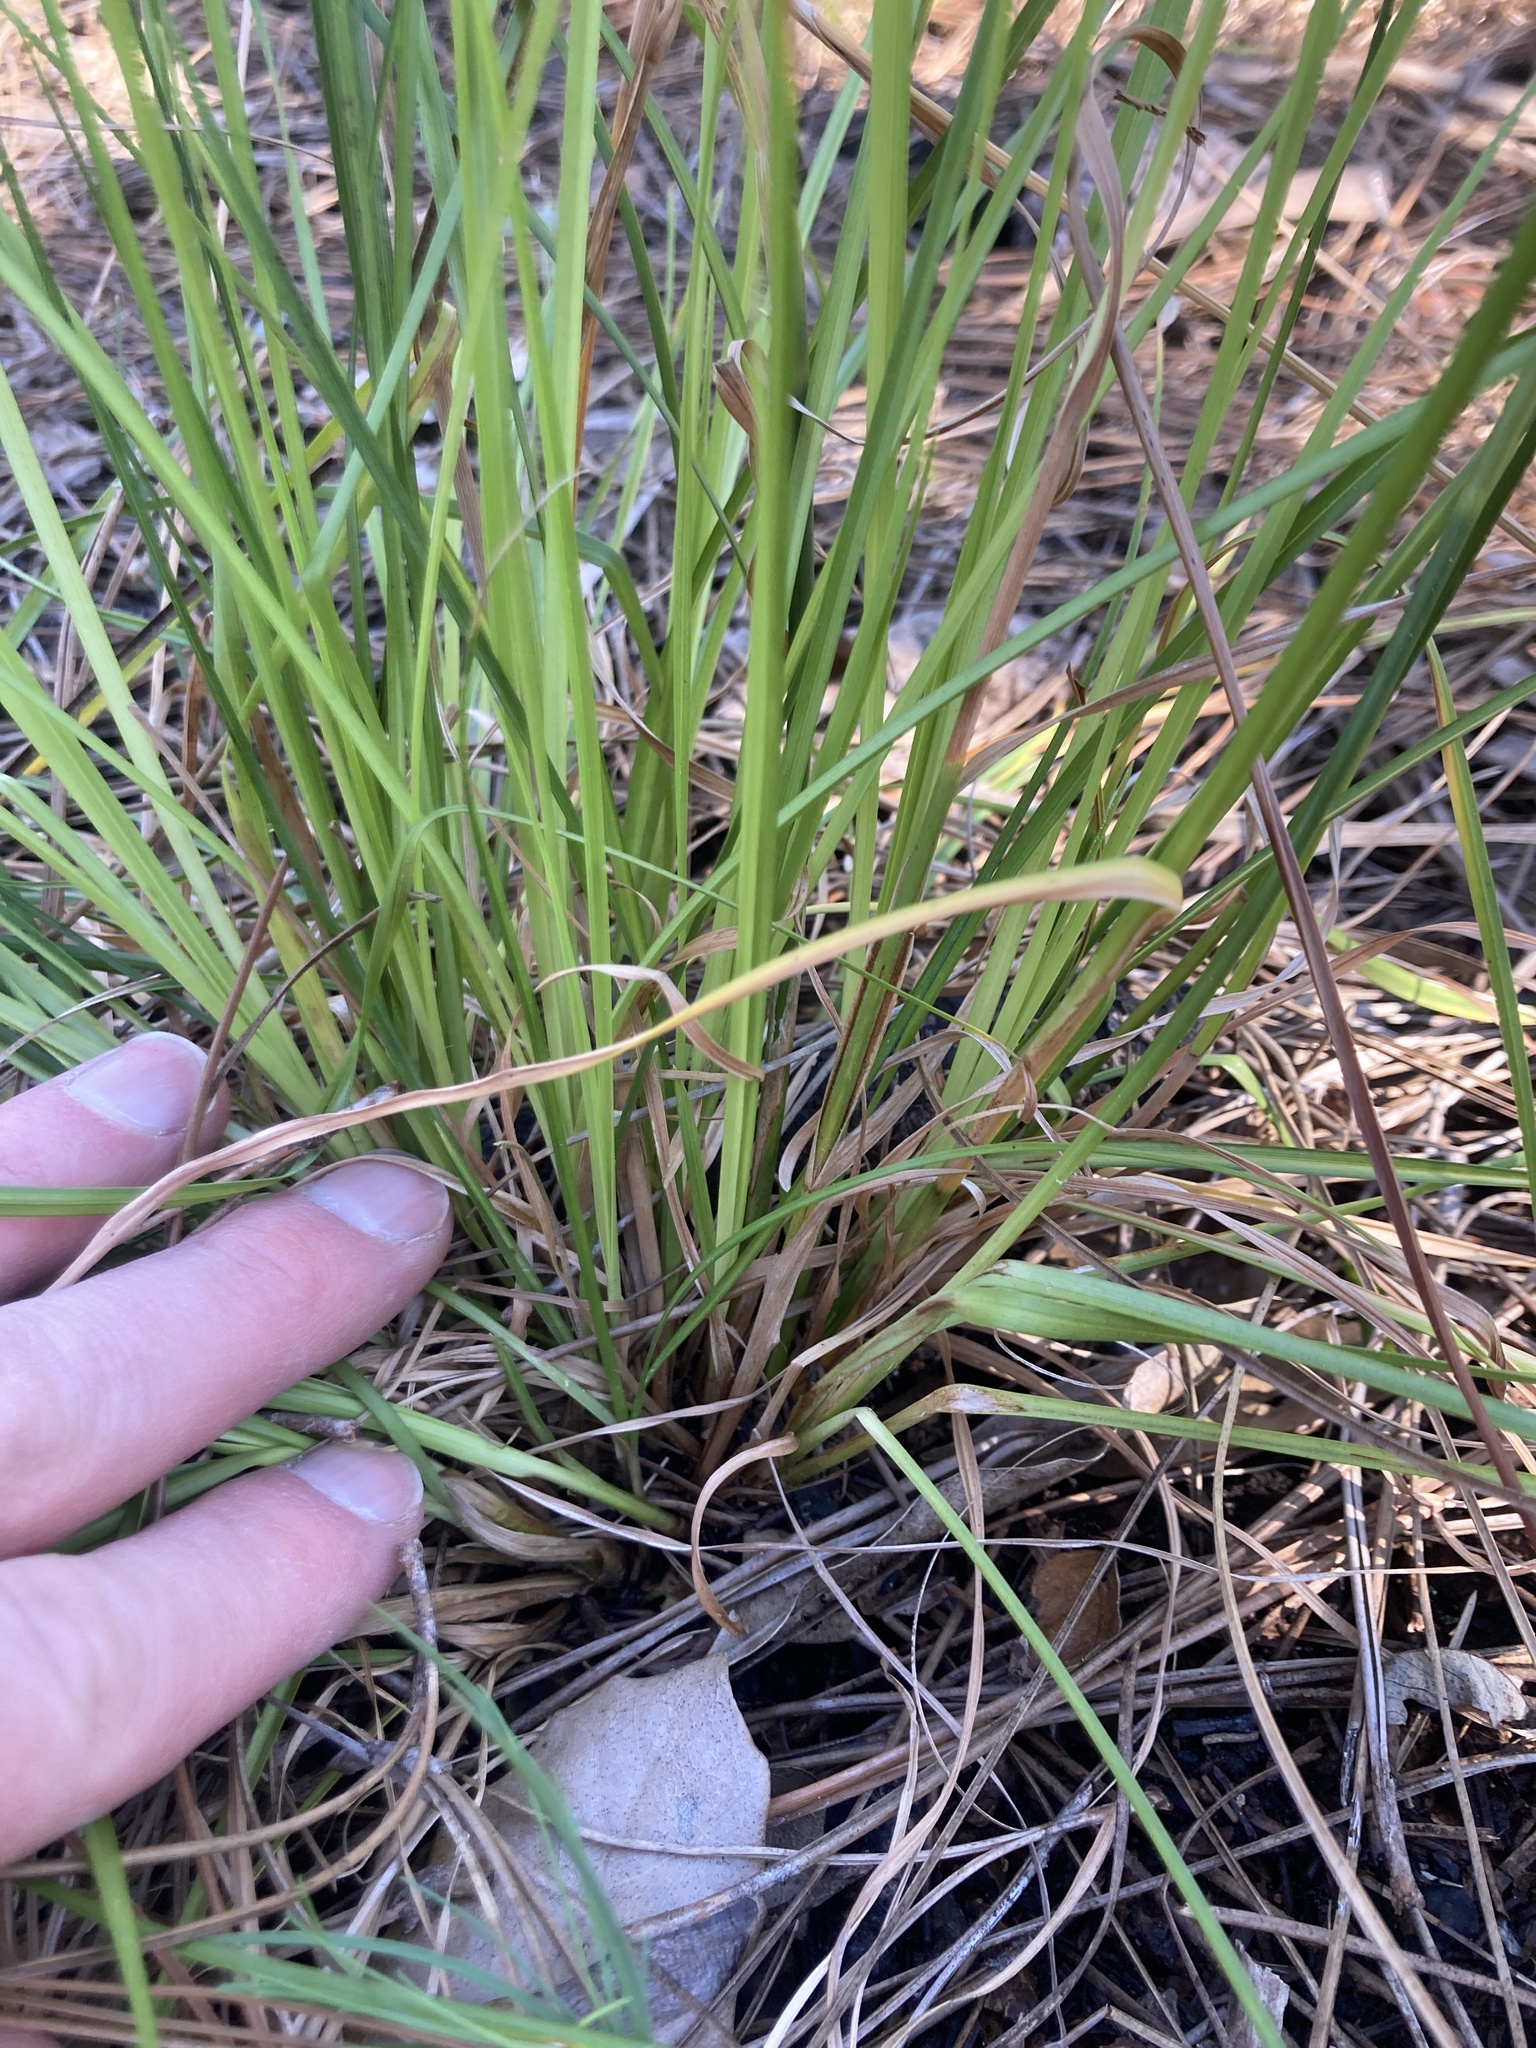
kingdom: Plantae
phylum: Tracheophyta
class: Liliopsida
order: Poales
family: Cyperaceae
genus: Rhynchospora
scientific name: Rhynchospora fascicularis
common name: Fascicled beak sedge
